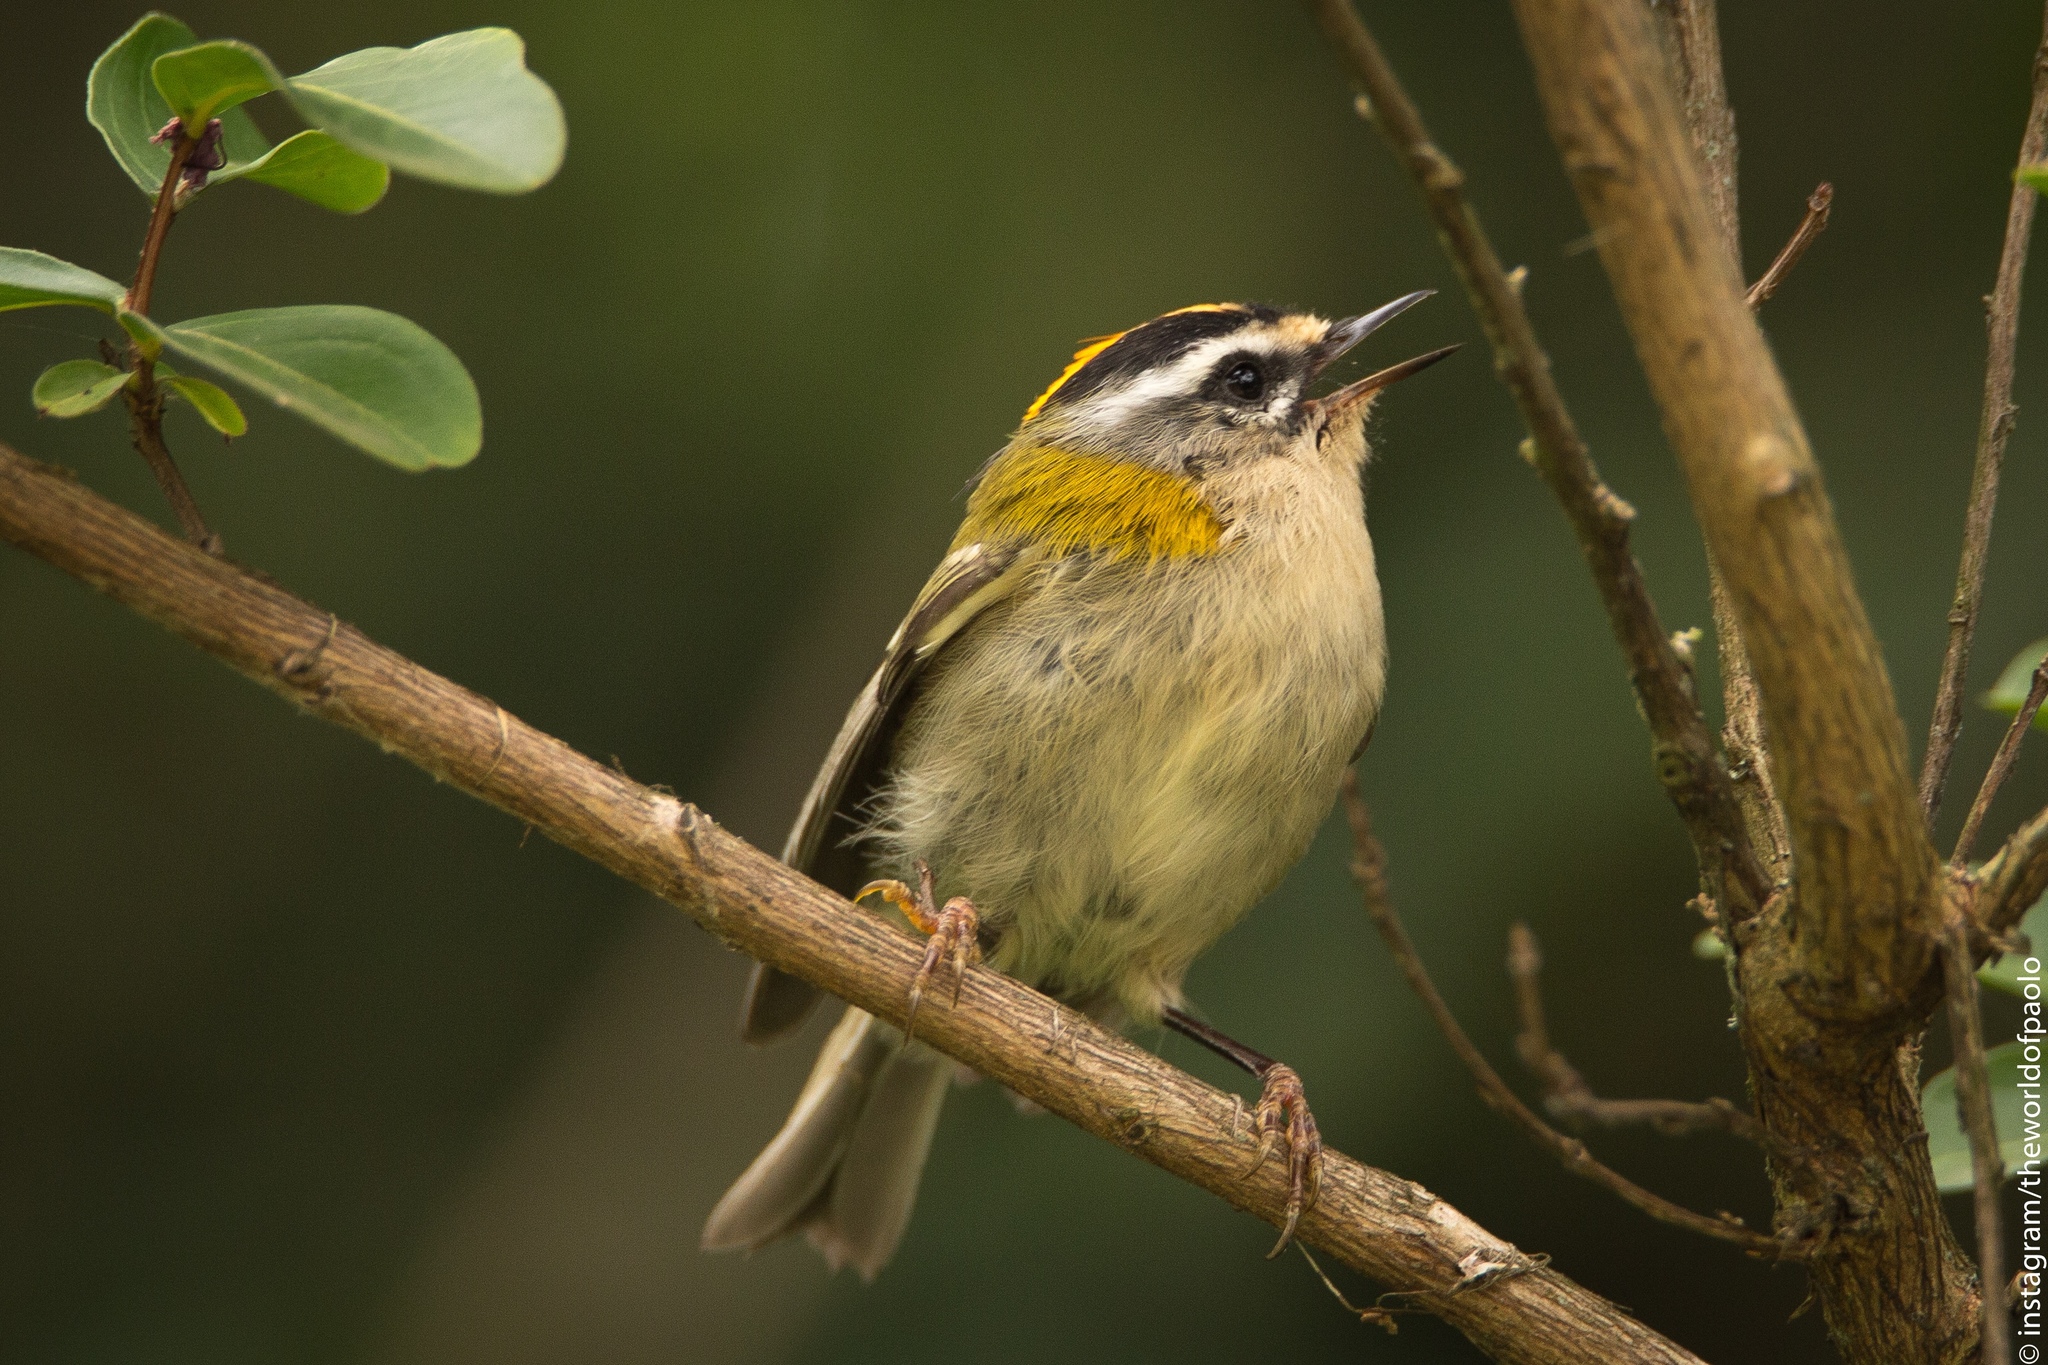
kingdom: Animalia
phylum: Chordata
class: Aves
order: Passeriformes
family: Regulidae
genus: Regulus
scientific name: Regulus ignicapilla
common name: Firecrest
